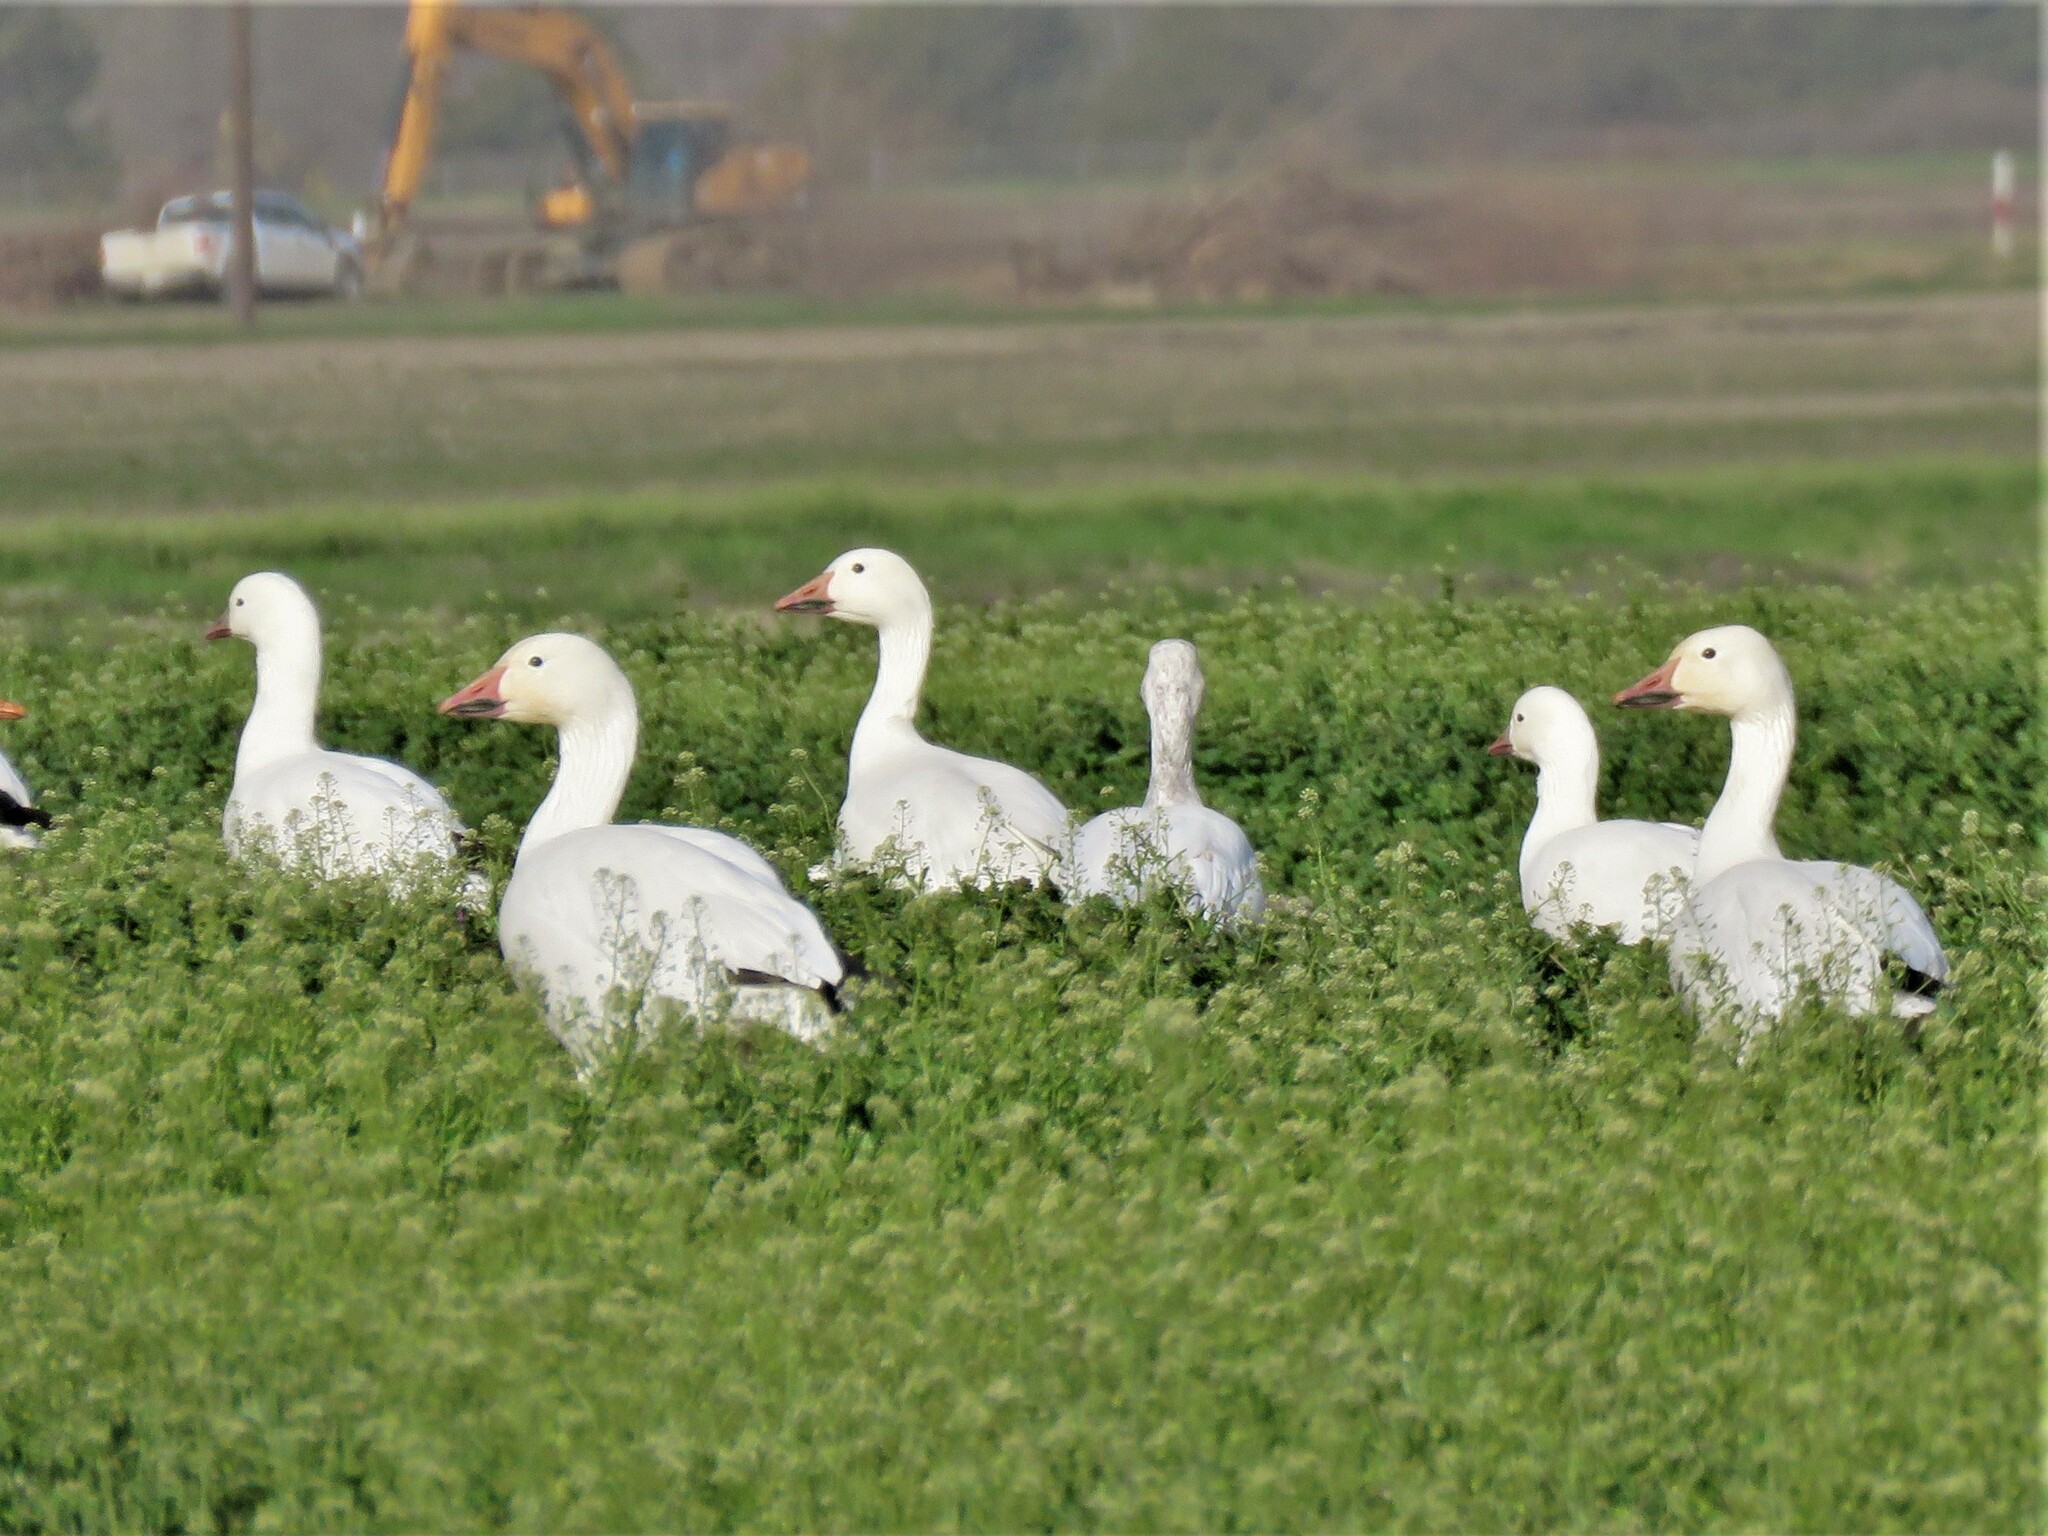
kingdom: Animalia
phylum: Chordata
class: Aves
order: Anseriformes
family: Anatidae
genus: Anser
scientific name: Anser caerulescens
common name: Snow goose
